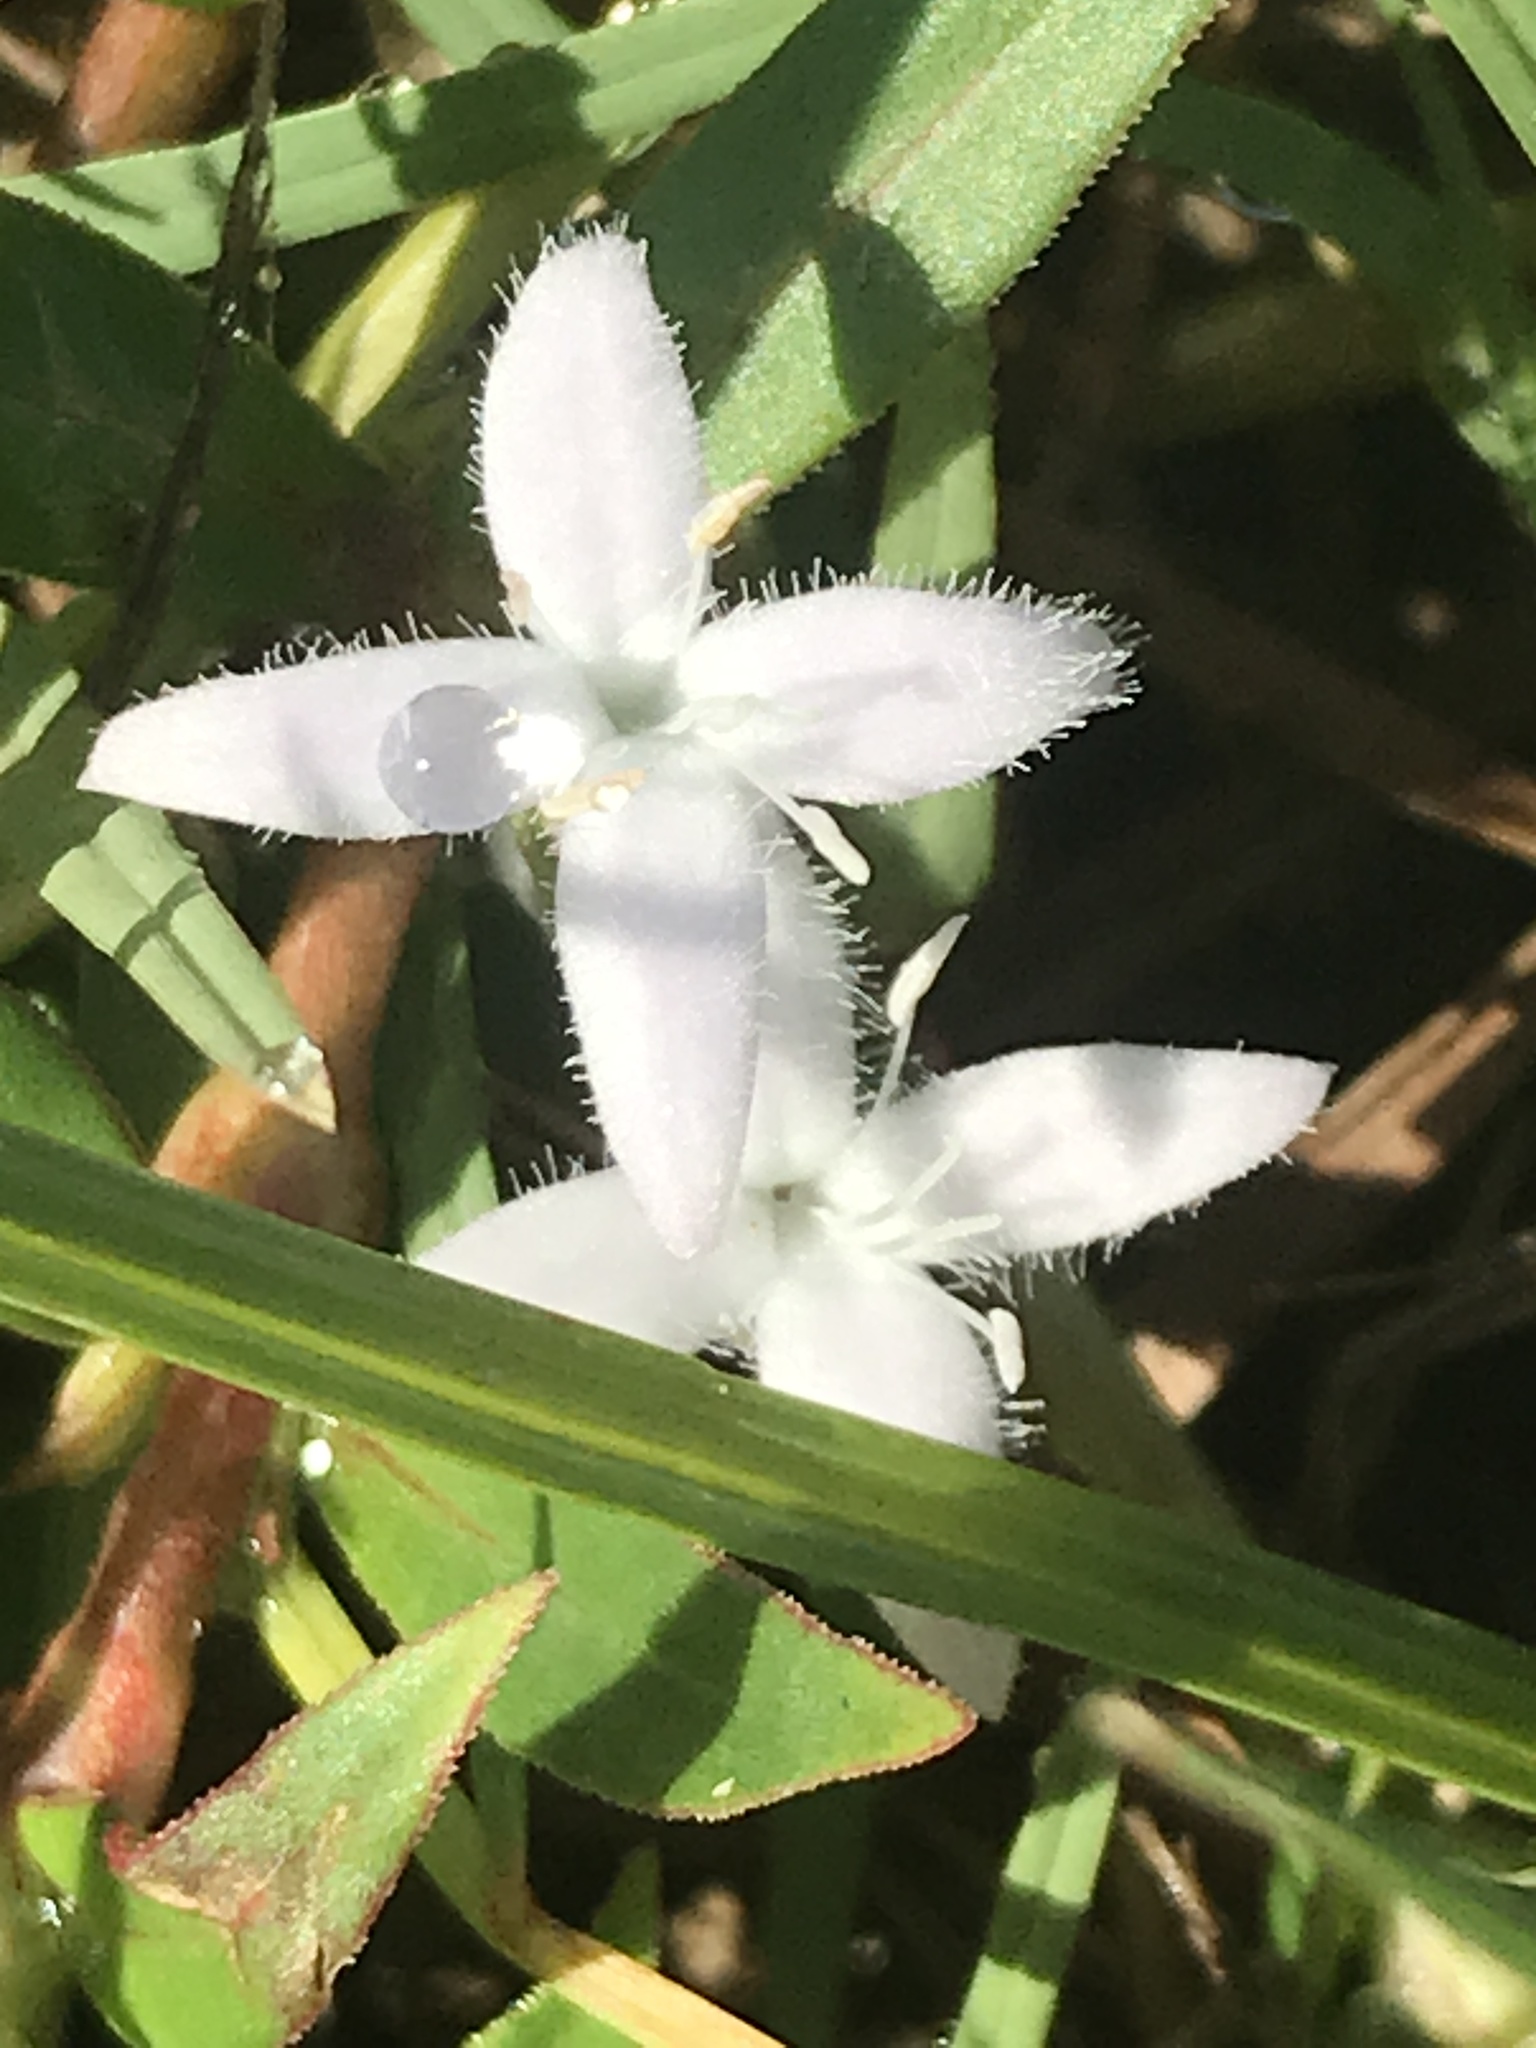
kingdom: Plantae
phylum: Tracheophyta
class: Magnoliopsida
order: Gentianales
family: Rubiaceae
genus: Diodia
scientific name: Diodia virginiana
